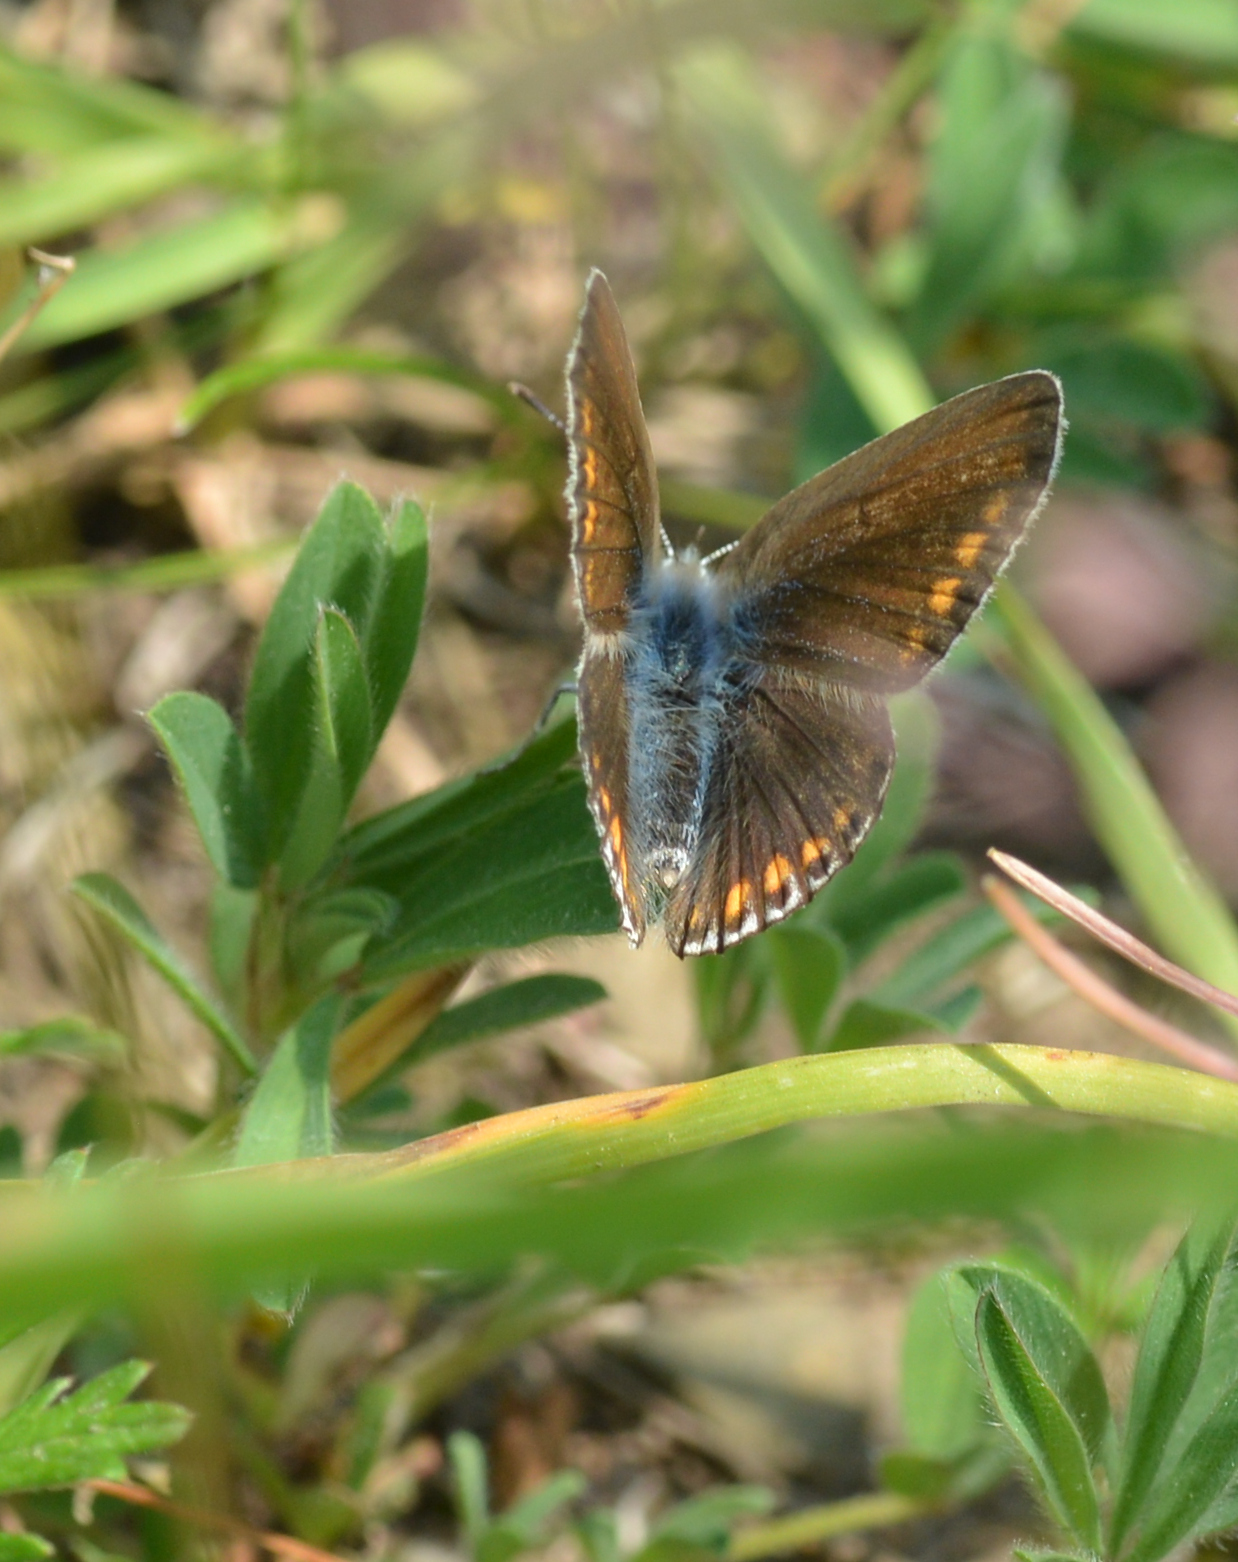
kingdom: Animalia
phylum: Arthropoda
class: Insecta
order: Lepidoptera
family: Lycaenidae
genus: Polyommatus
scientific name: Polyommatus icarus
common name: Common blue
